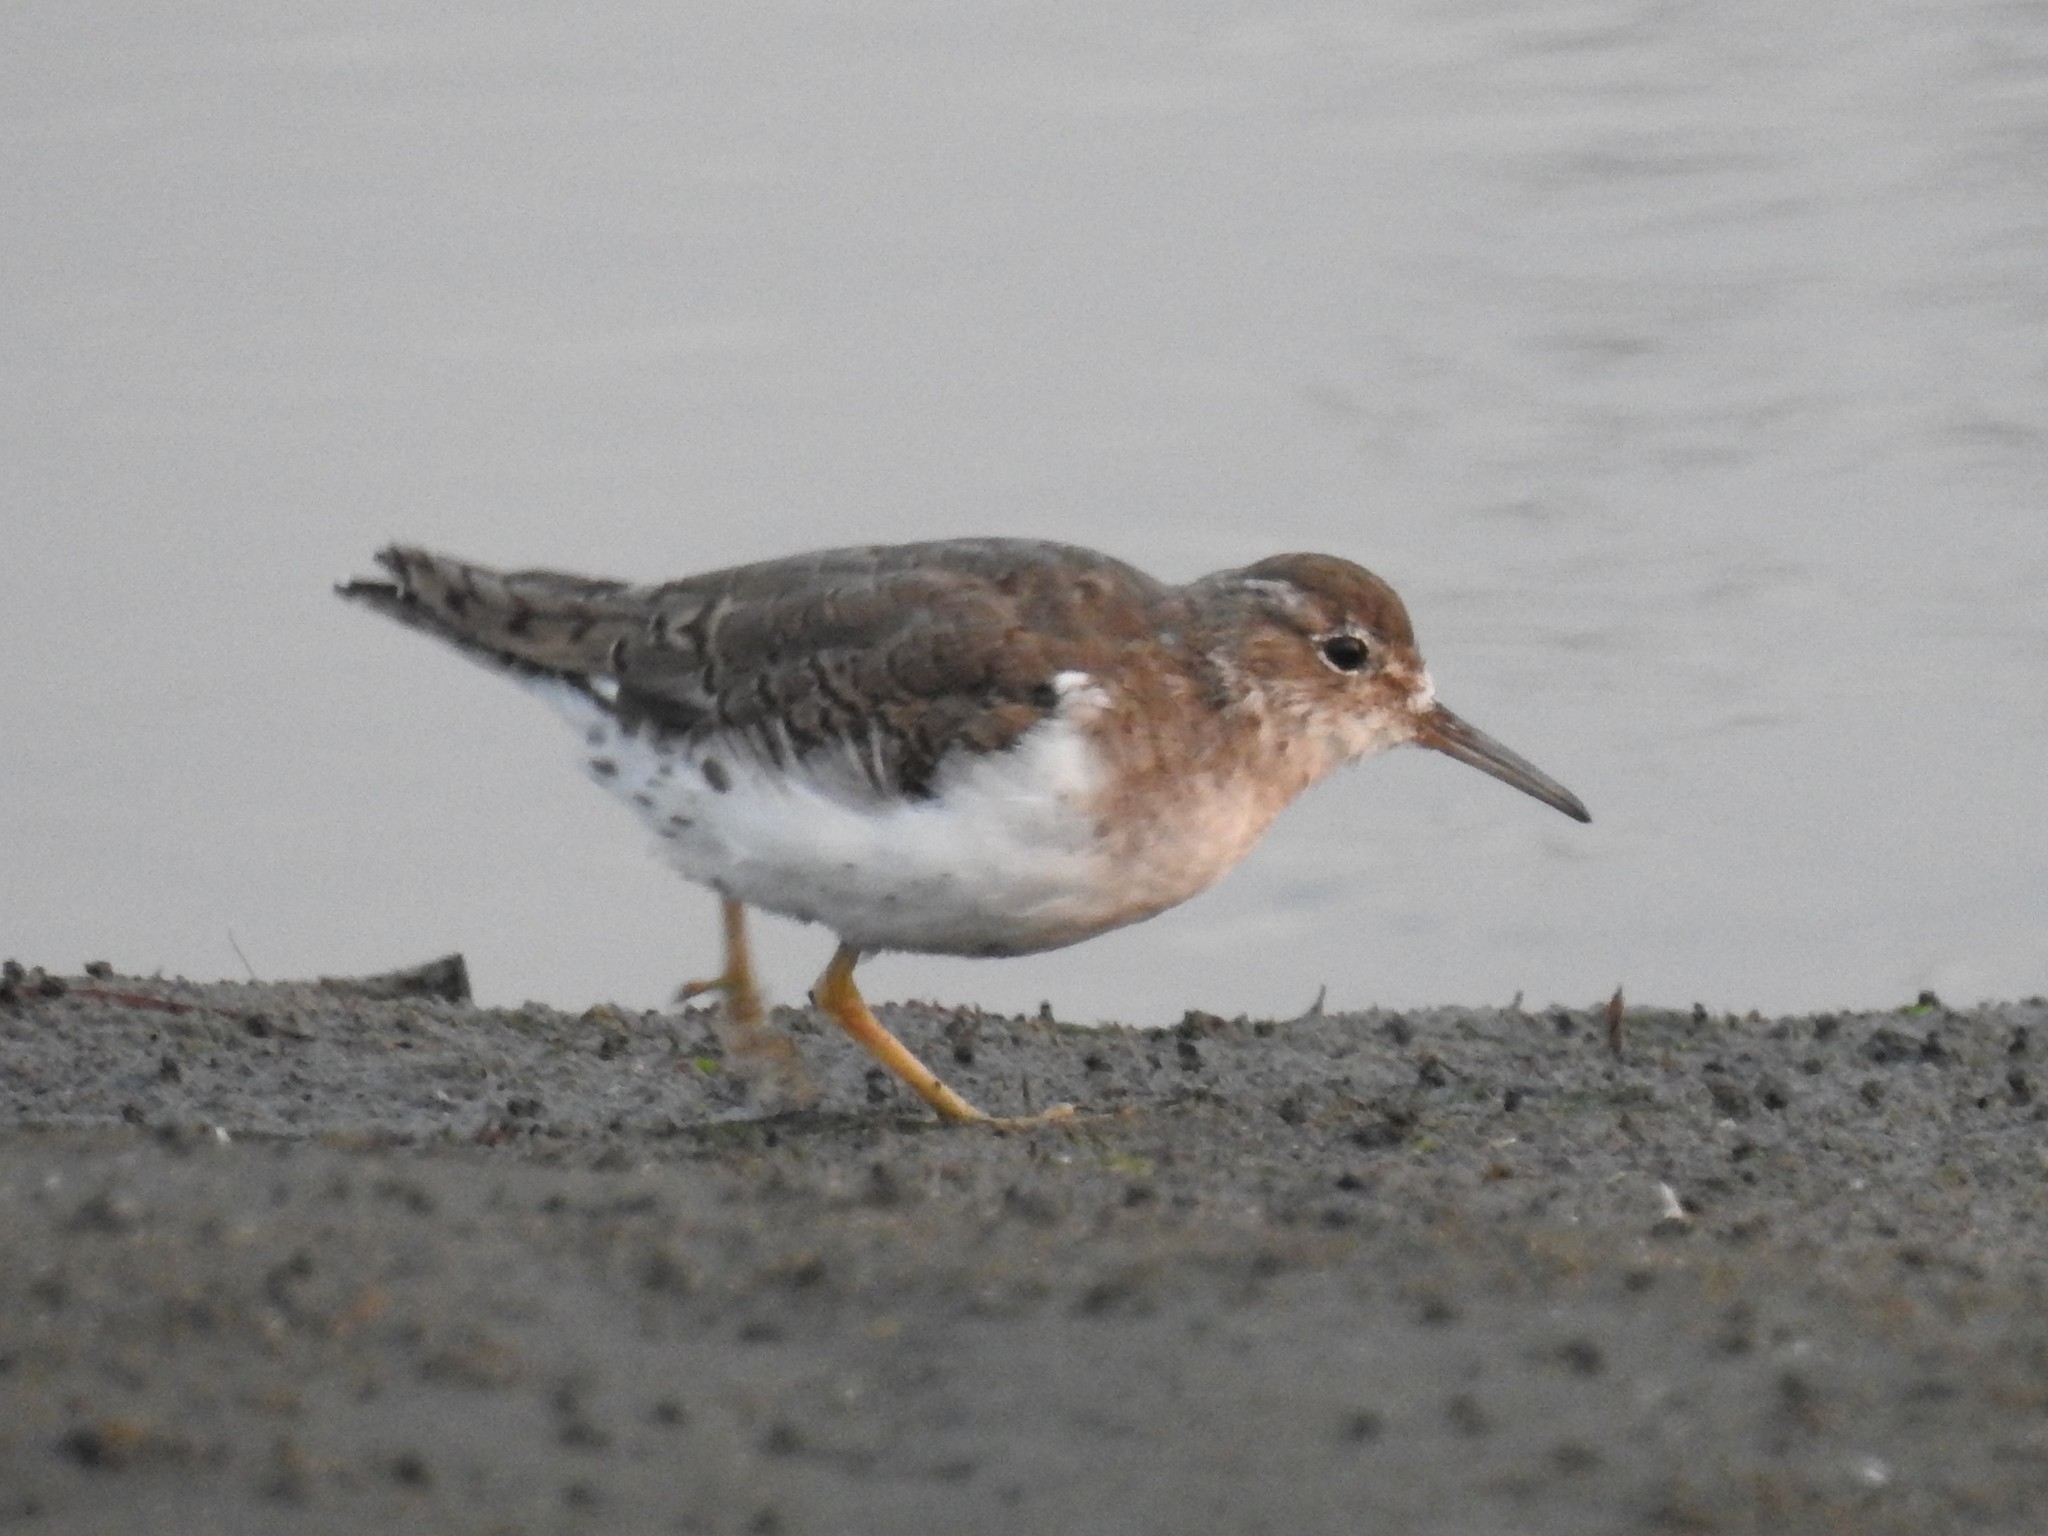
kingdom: Animalia
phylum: Chordata
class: Aves
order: Charadriiformes
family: Scolopacidae
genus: Actitis
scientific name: Actitis macularius
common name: Spotted sandpiper
